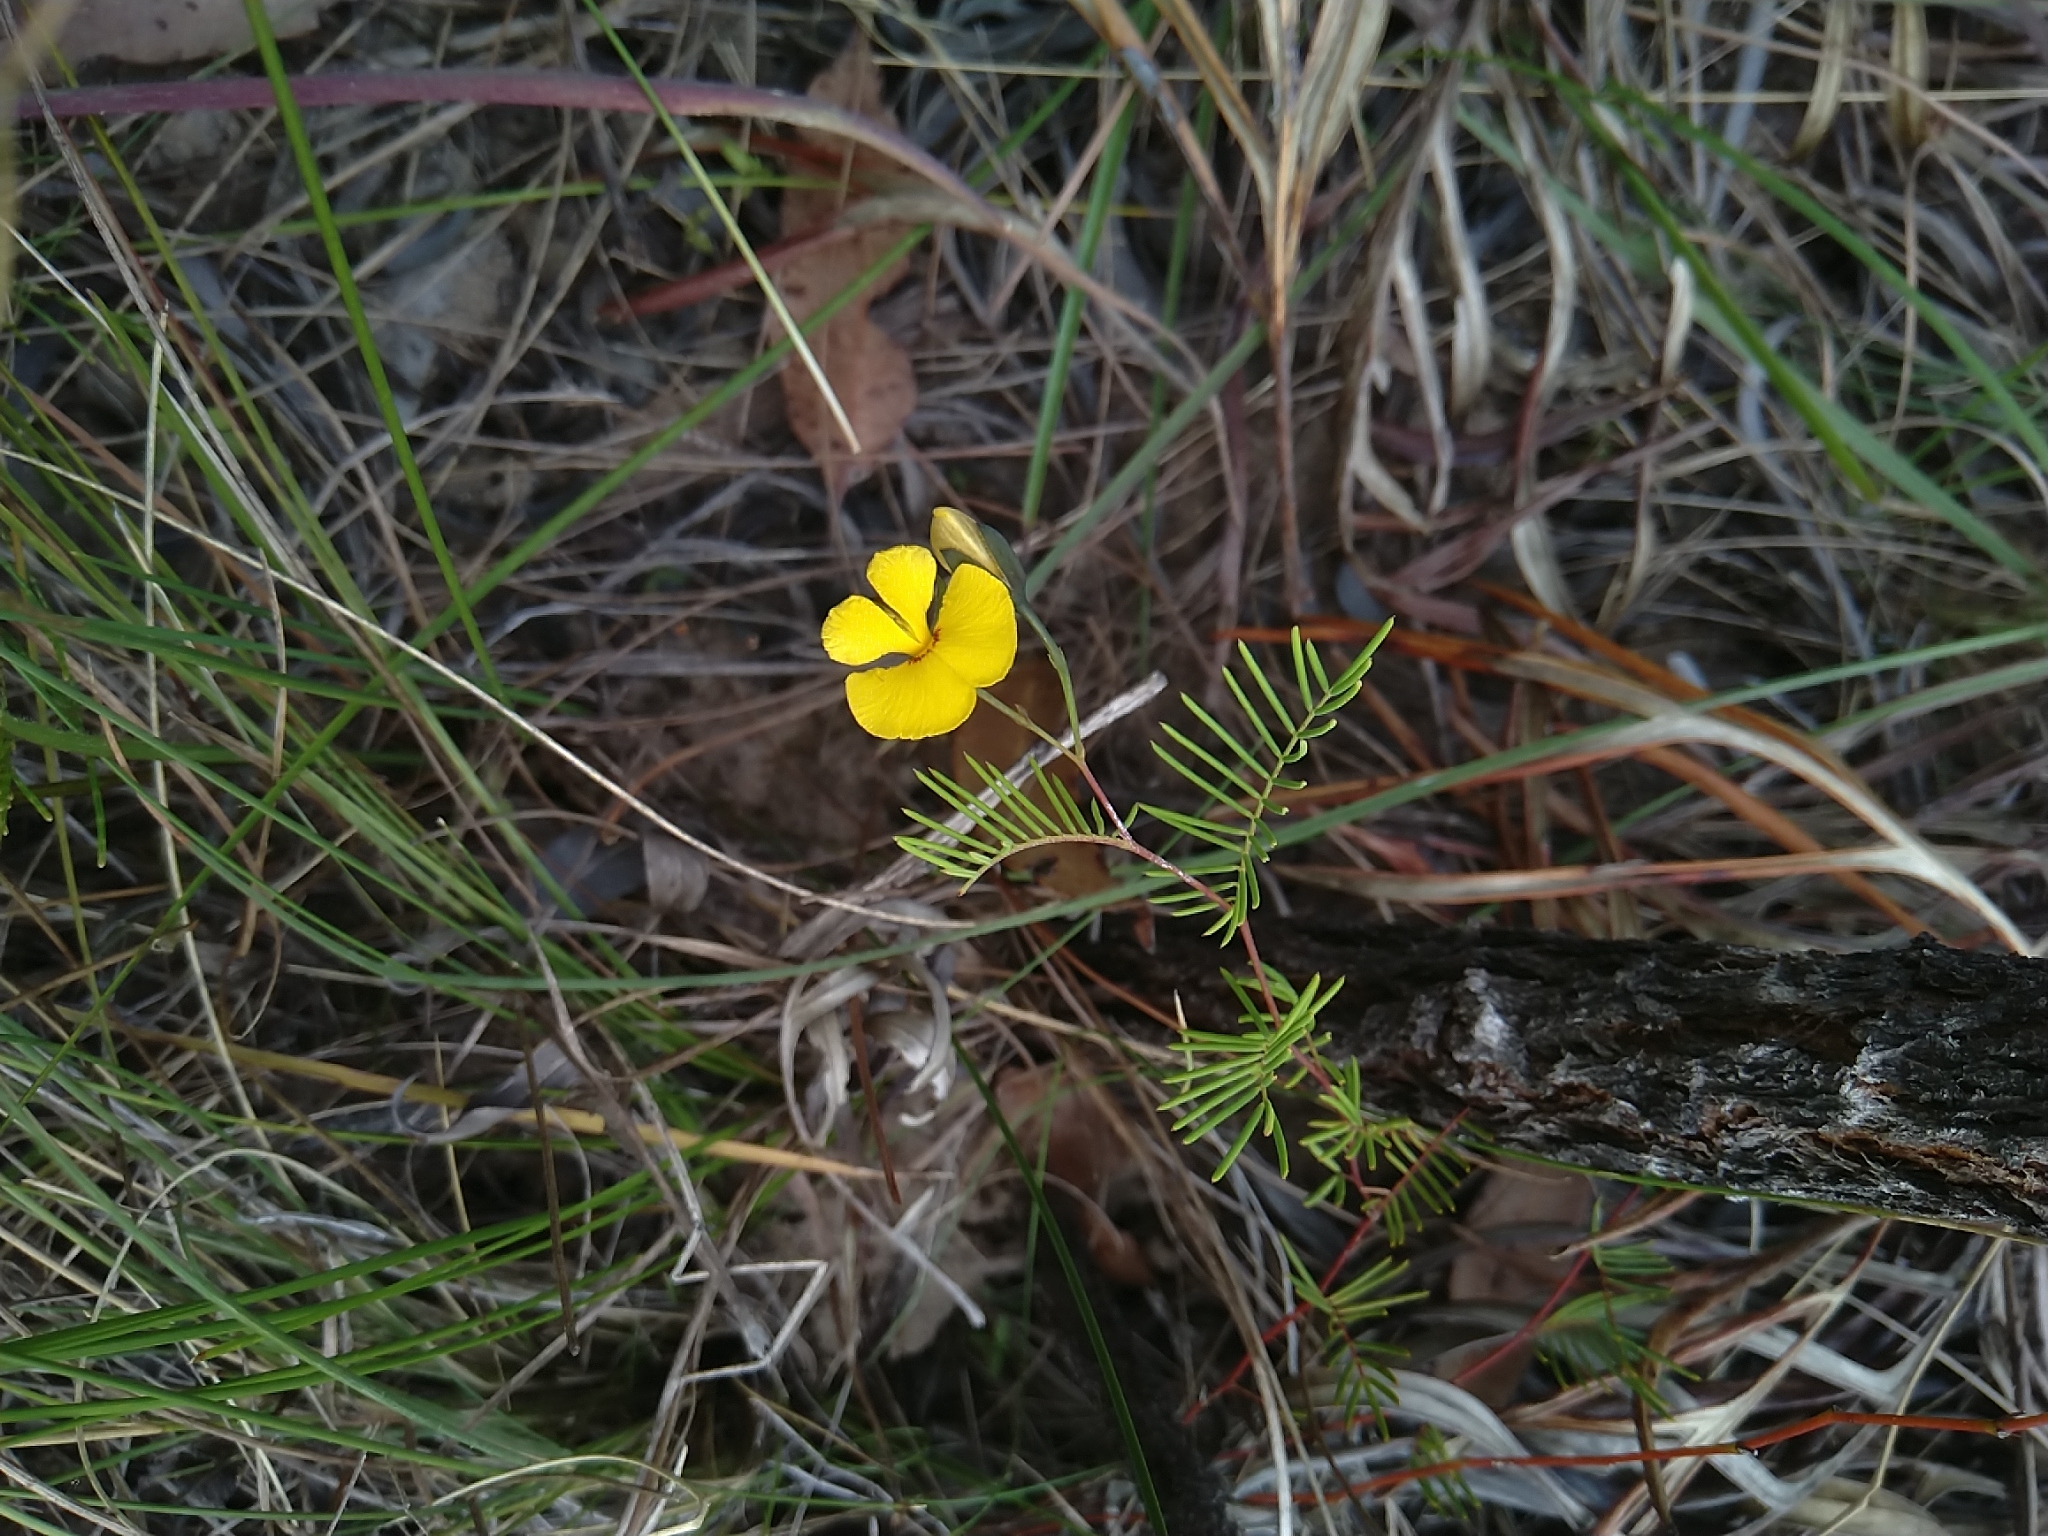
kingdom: Plantae
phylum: Tracheophyta
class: Magnoliopsida
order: Fabales
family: Fabaceae
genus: Gompholobium
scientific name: Gompholobium pinnatum
